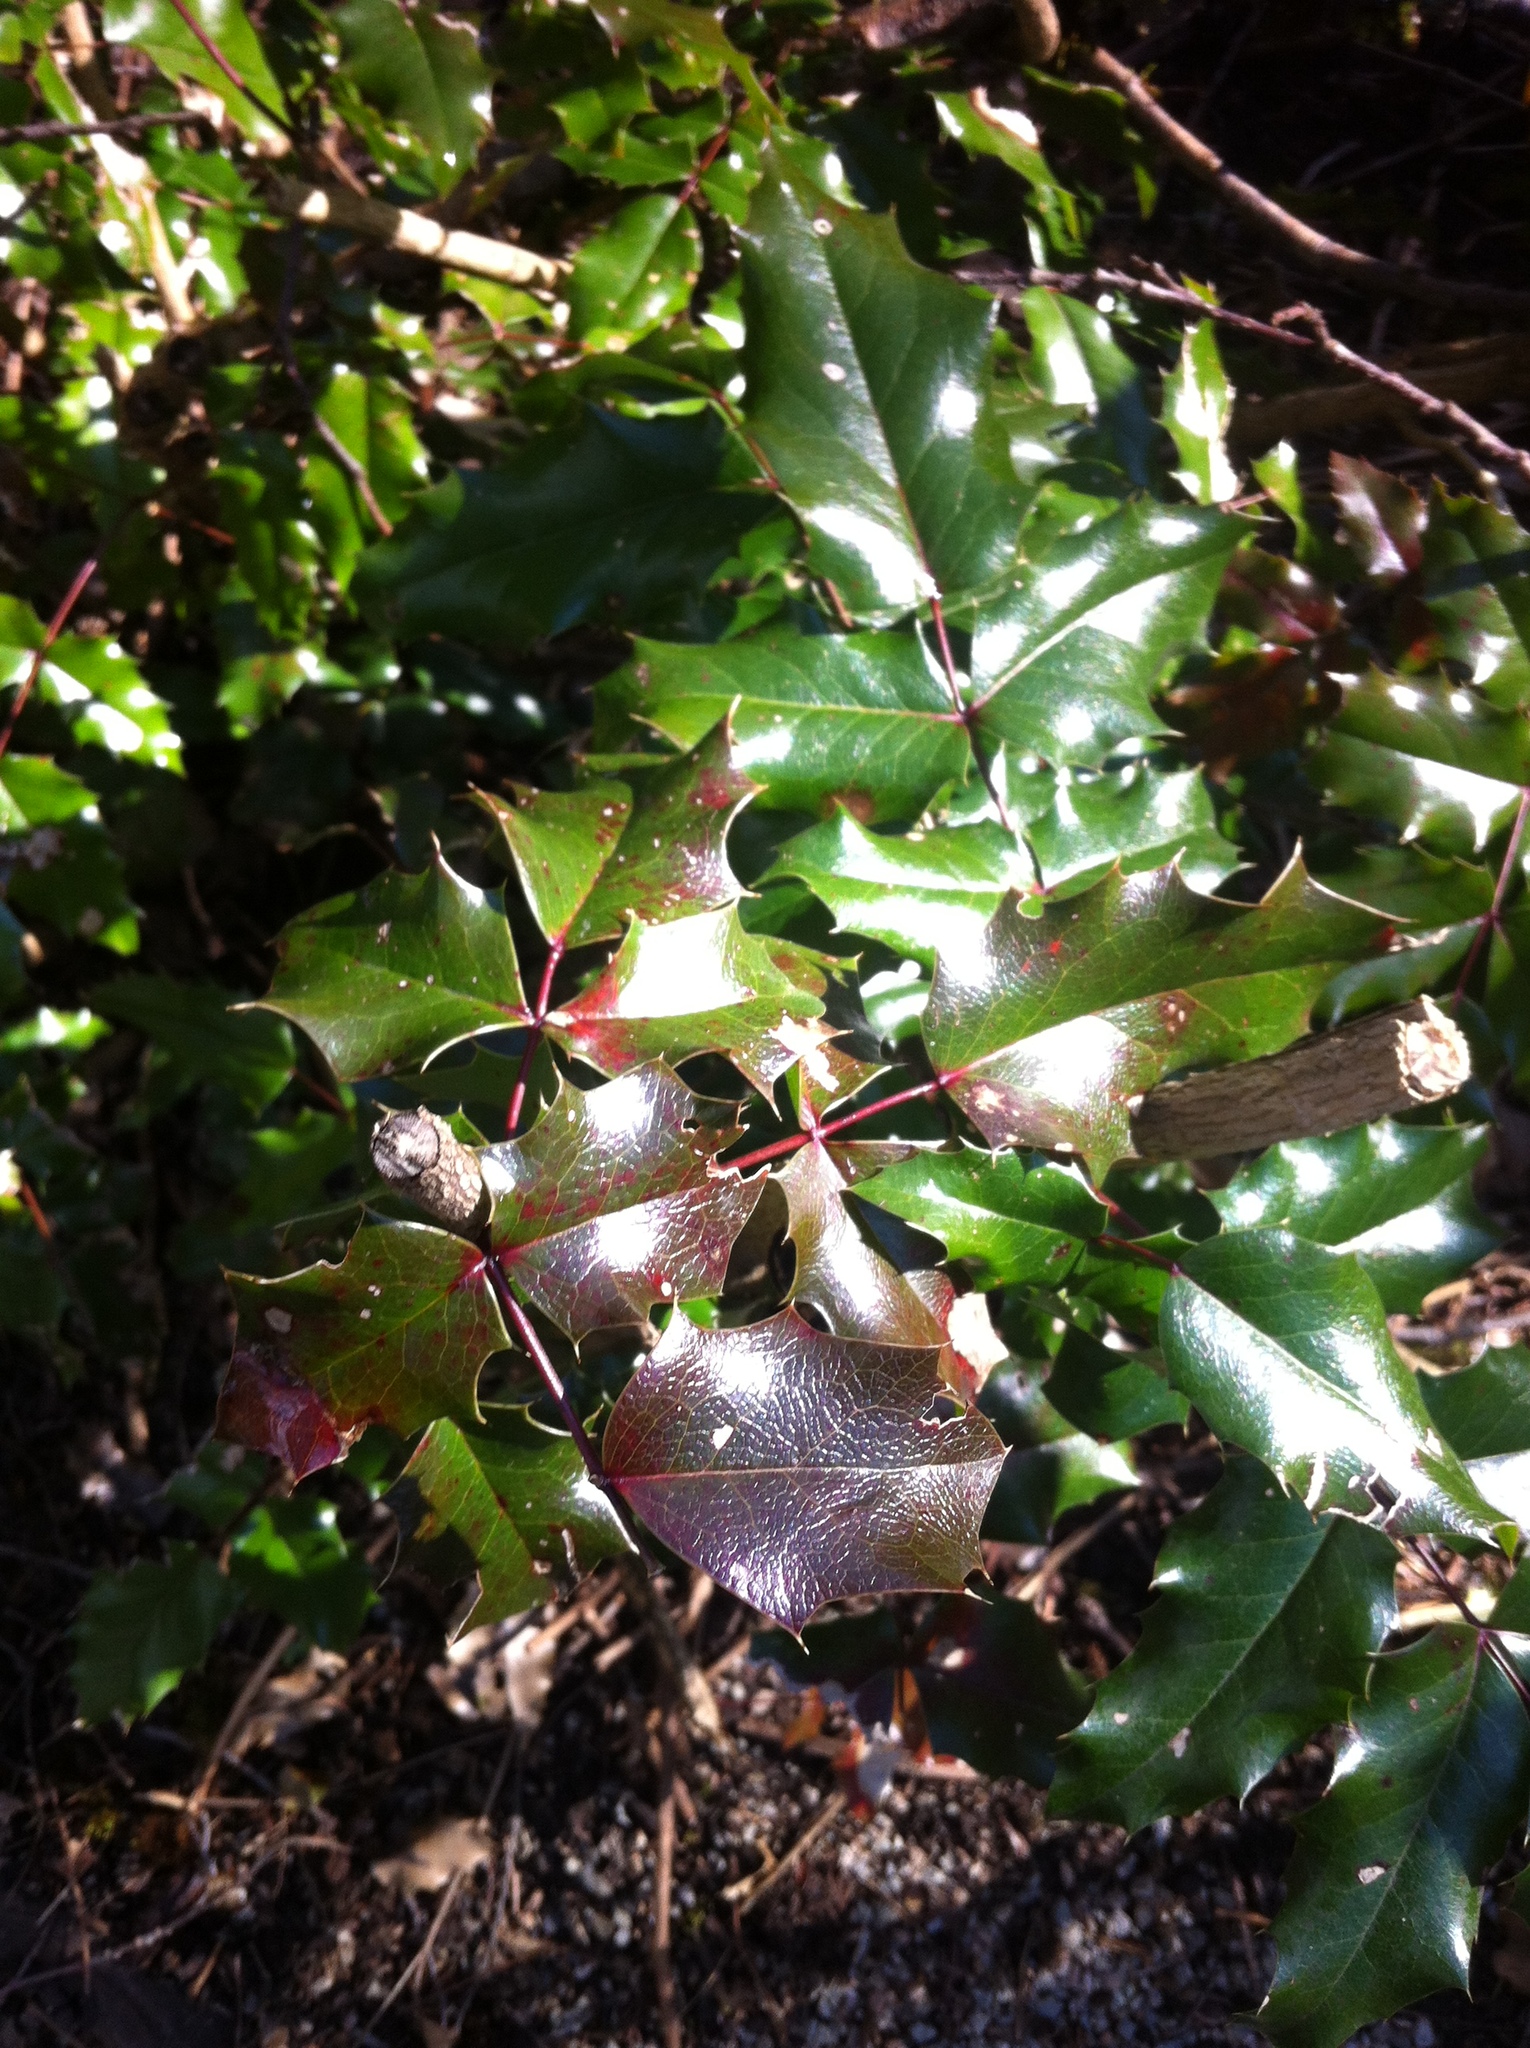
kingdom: Plantae
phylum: Tracheophyta
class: Magnoliopsida
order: Aquifoliales
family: Aquifoliaceae
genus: Ilex
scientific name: Ilex aquifolium
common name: English holly
